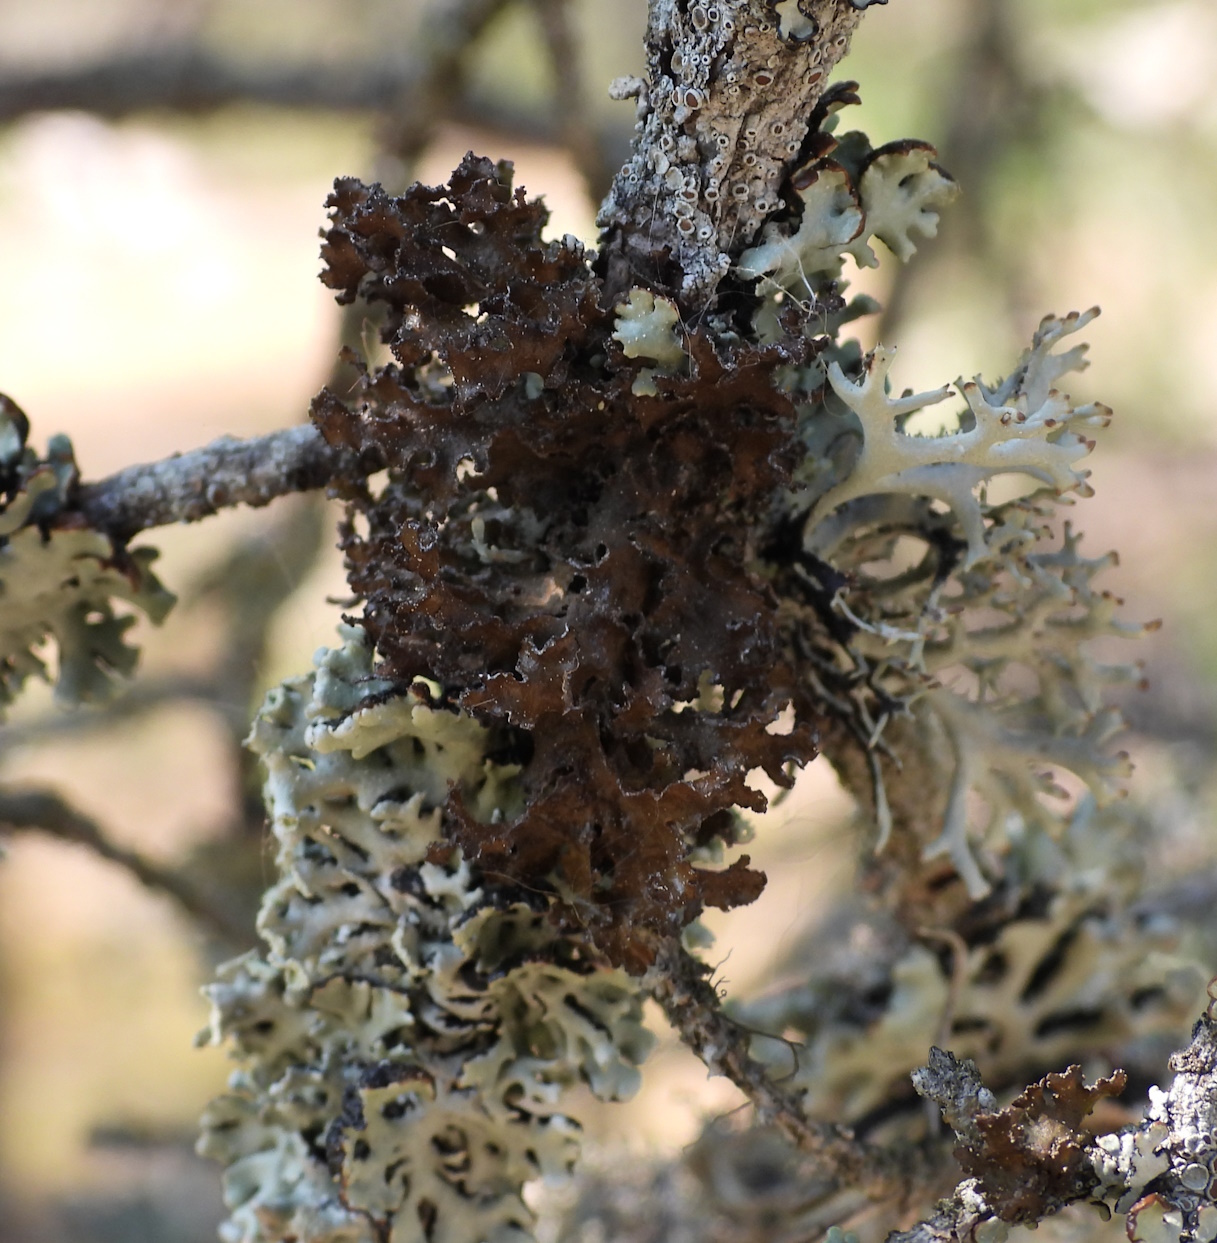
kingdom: Fungi
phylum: Ascomycota
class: Lecanoromycetes
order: Lecanorales
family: Parmeliaceae
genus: Nephromopsis
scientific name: Nephromopsis chlorophylla
